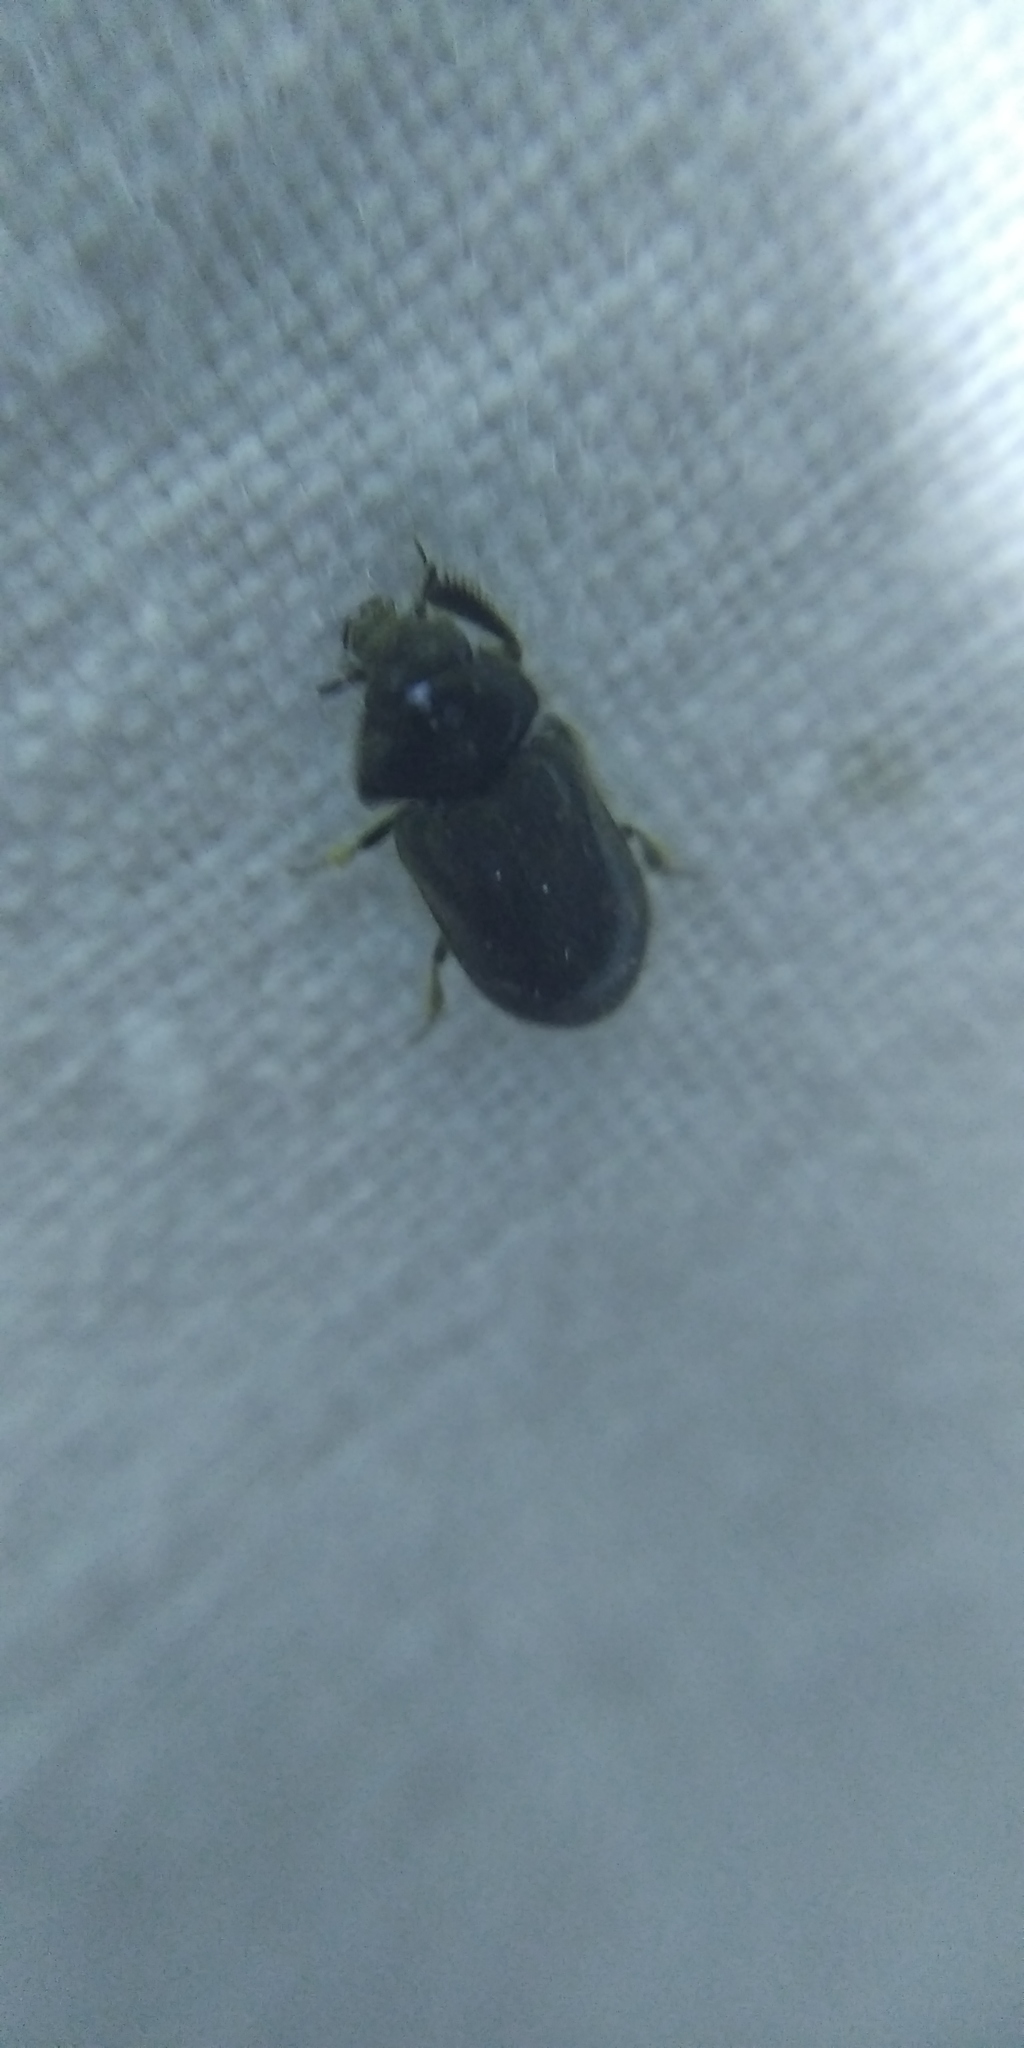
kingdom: Animalia
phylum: Arthropoda
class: Insecta
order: Coleoptera
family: Heteroceridae
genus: Heterocerus
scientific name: Heterocerus obsoletus
